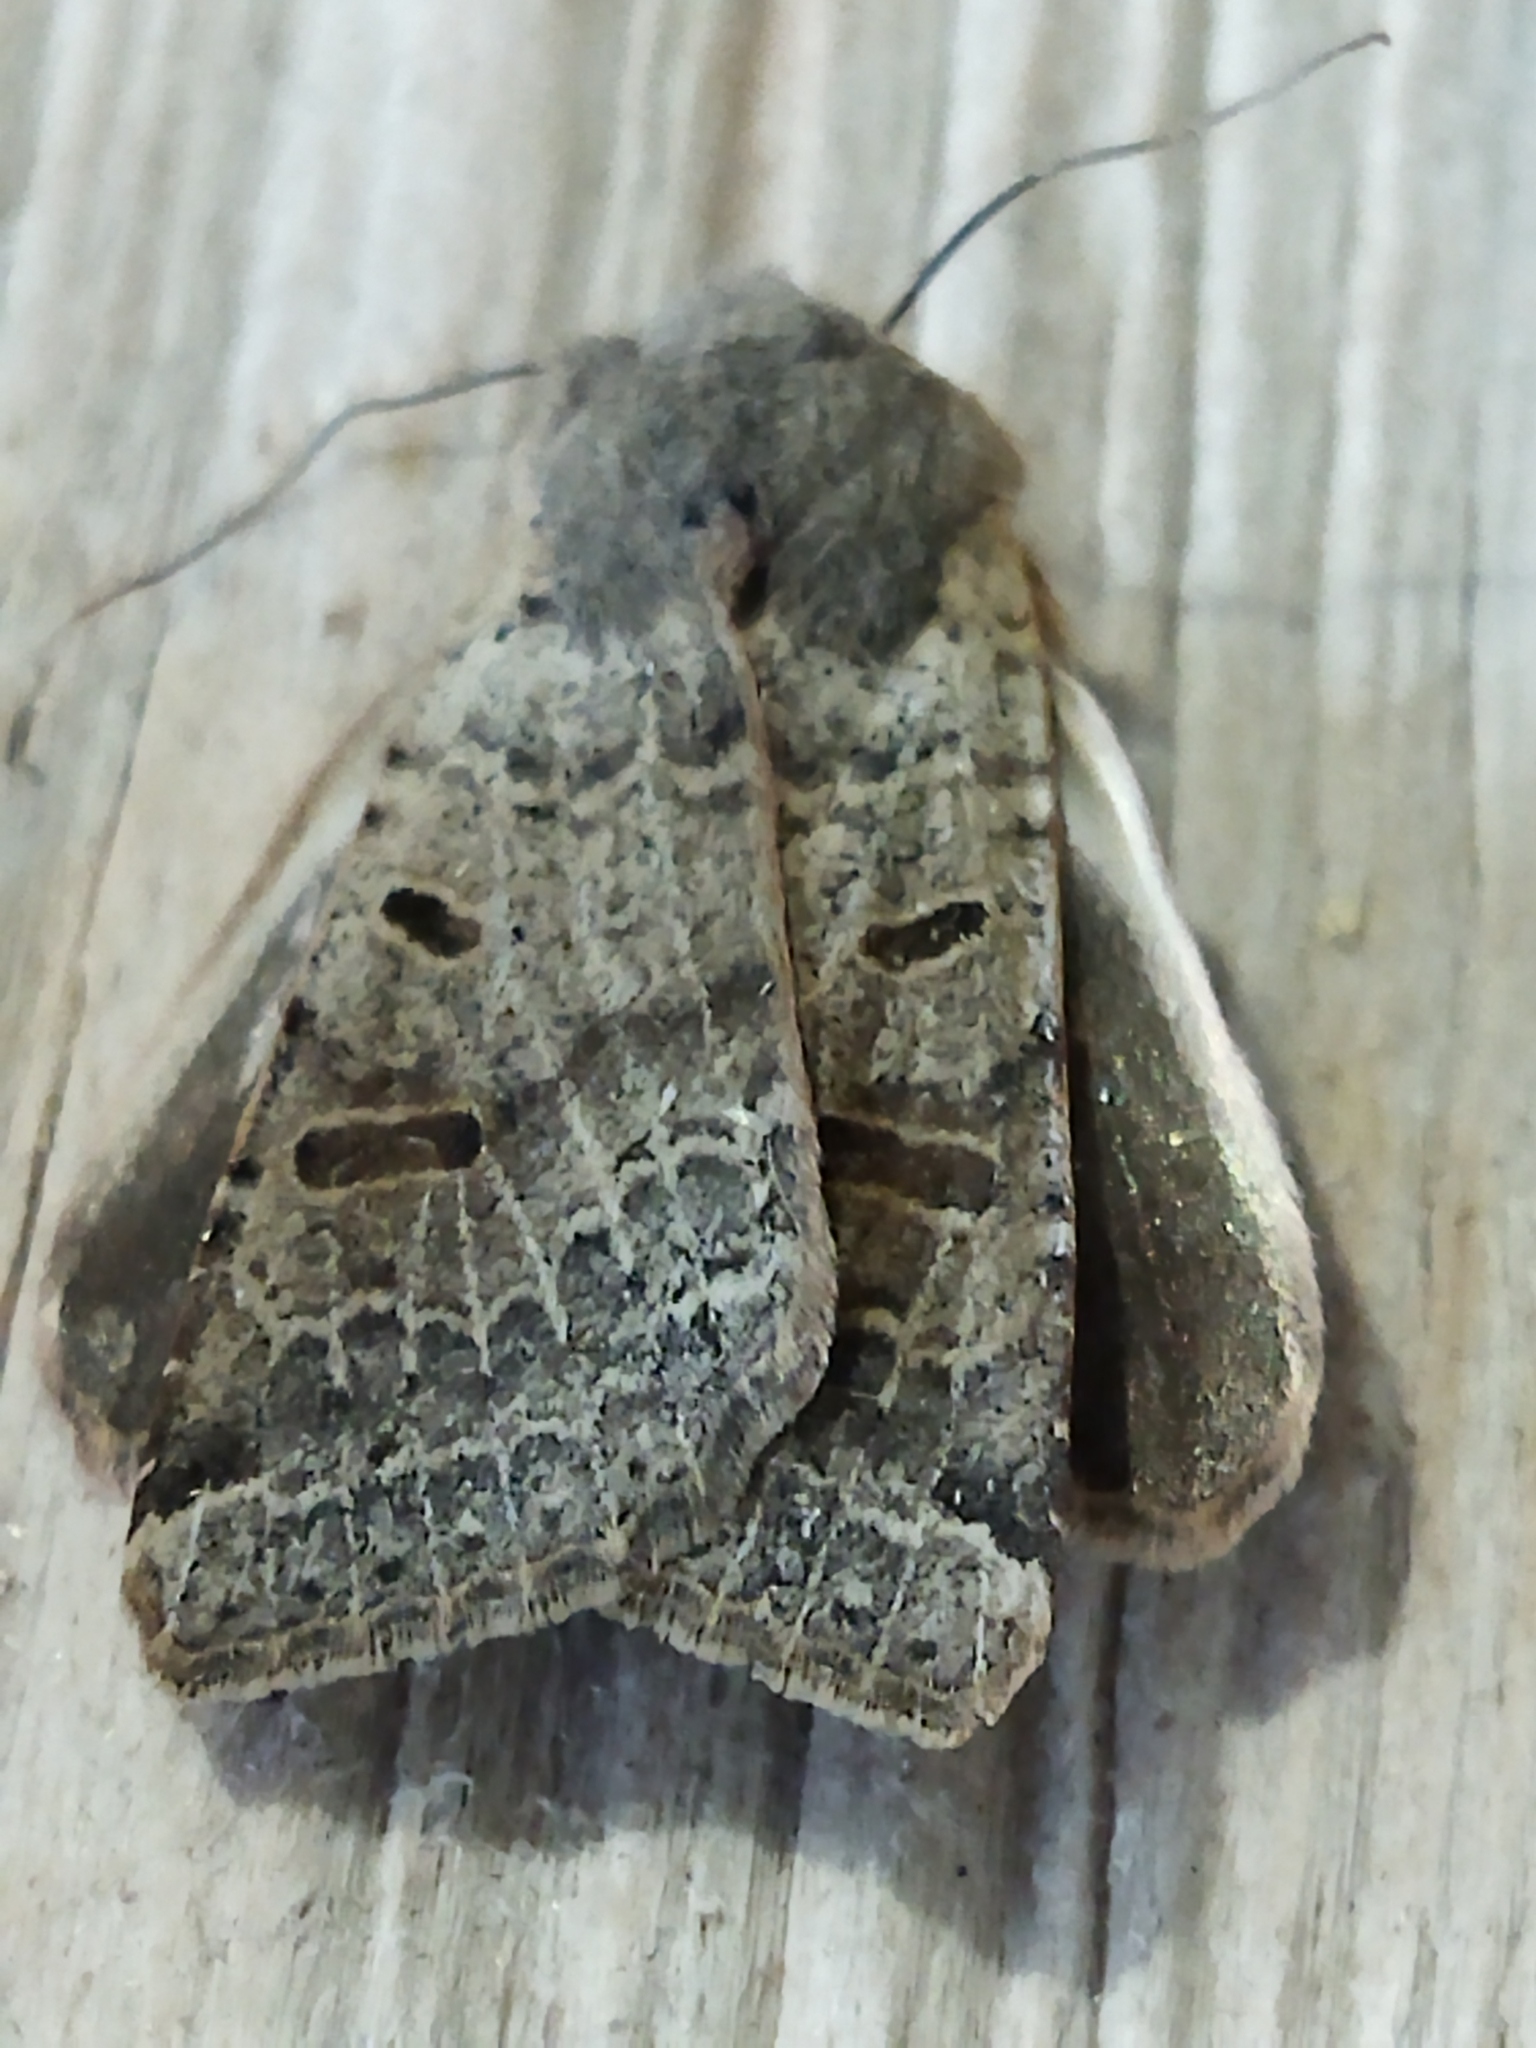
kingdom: Animalia
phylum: Arthropoda
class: Insecta
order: Lepidoptera
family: Noctuidae
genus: Agrochola
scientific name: Agrochola lychnidis
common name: Beaded chestnut
